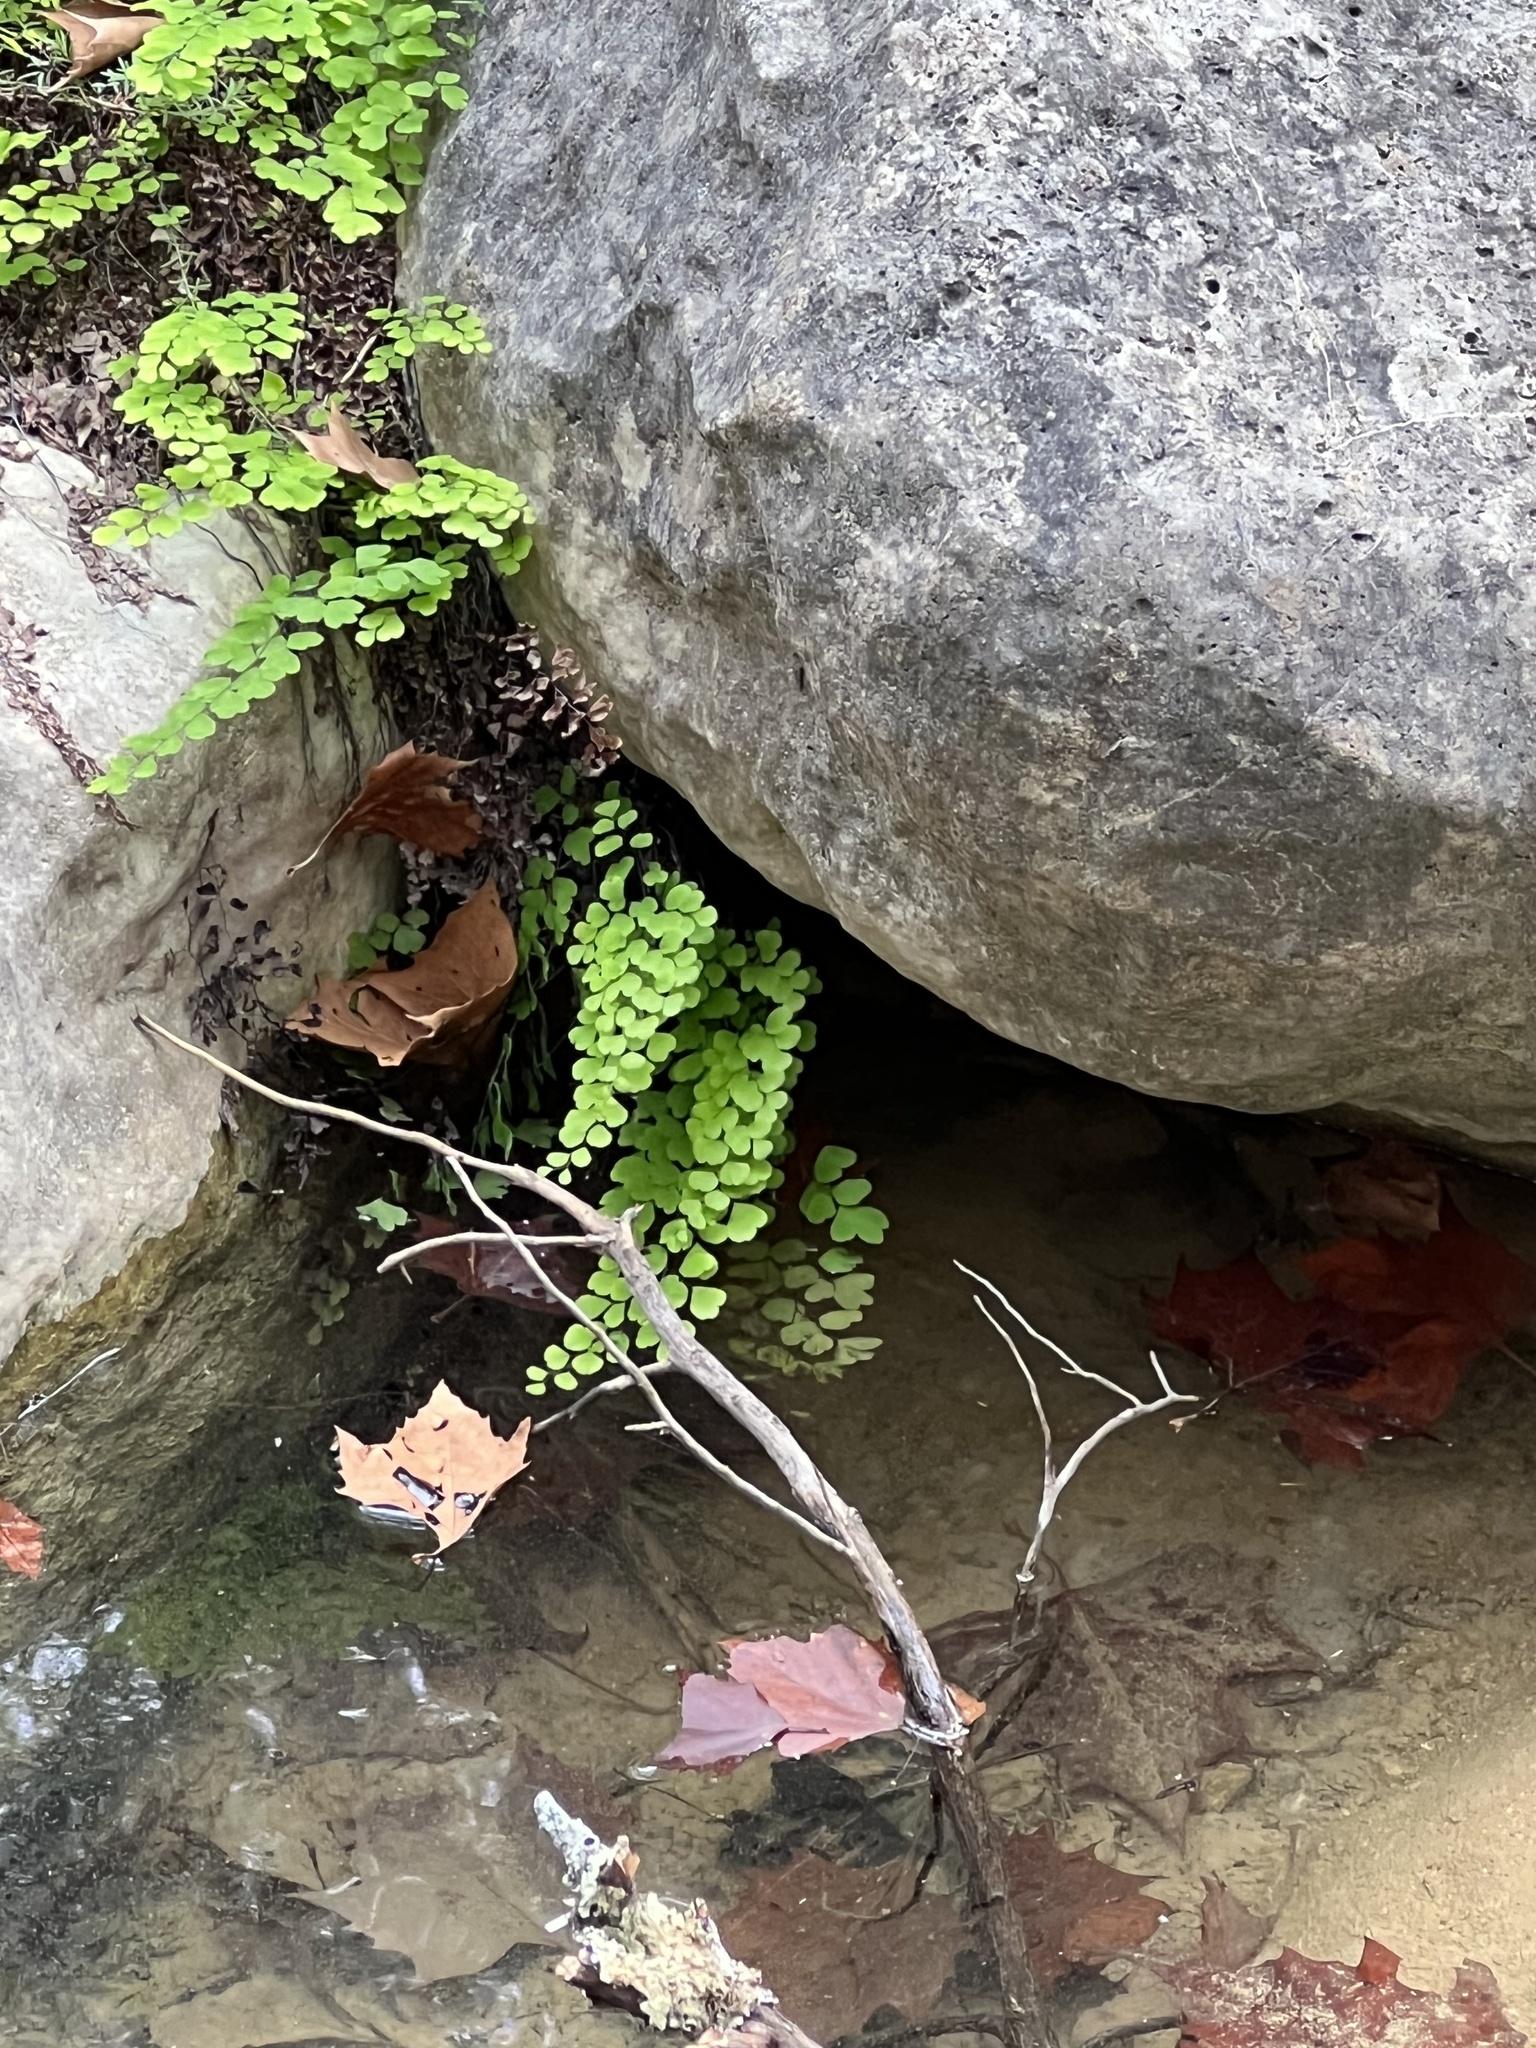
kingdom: Plantae
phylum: Tracheophyta
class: Polypodiopsida
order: Polypodiales
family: Pteridaceae
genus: Adiantum
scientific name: Adiantum capillus-veneris
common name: Maidenhair fern
